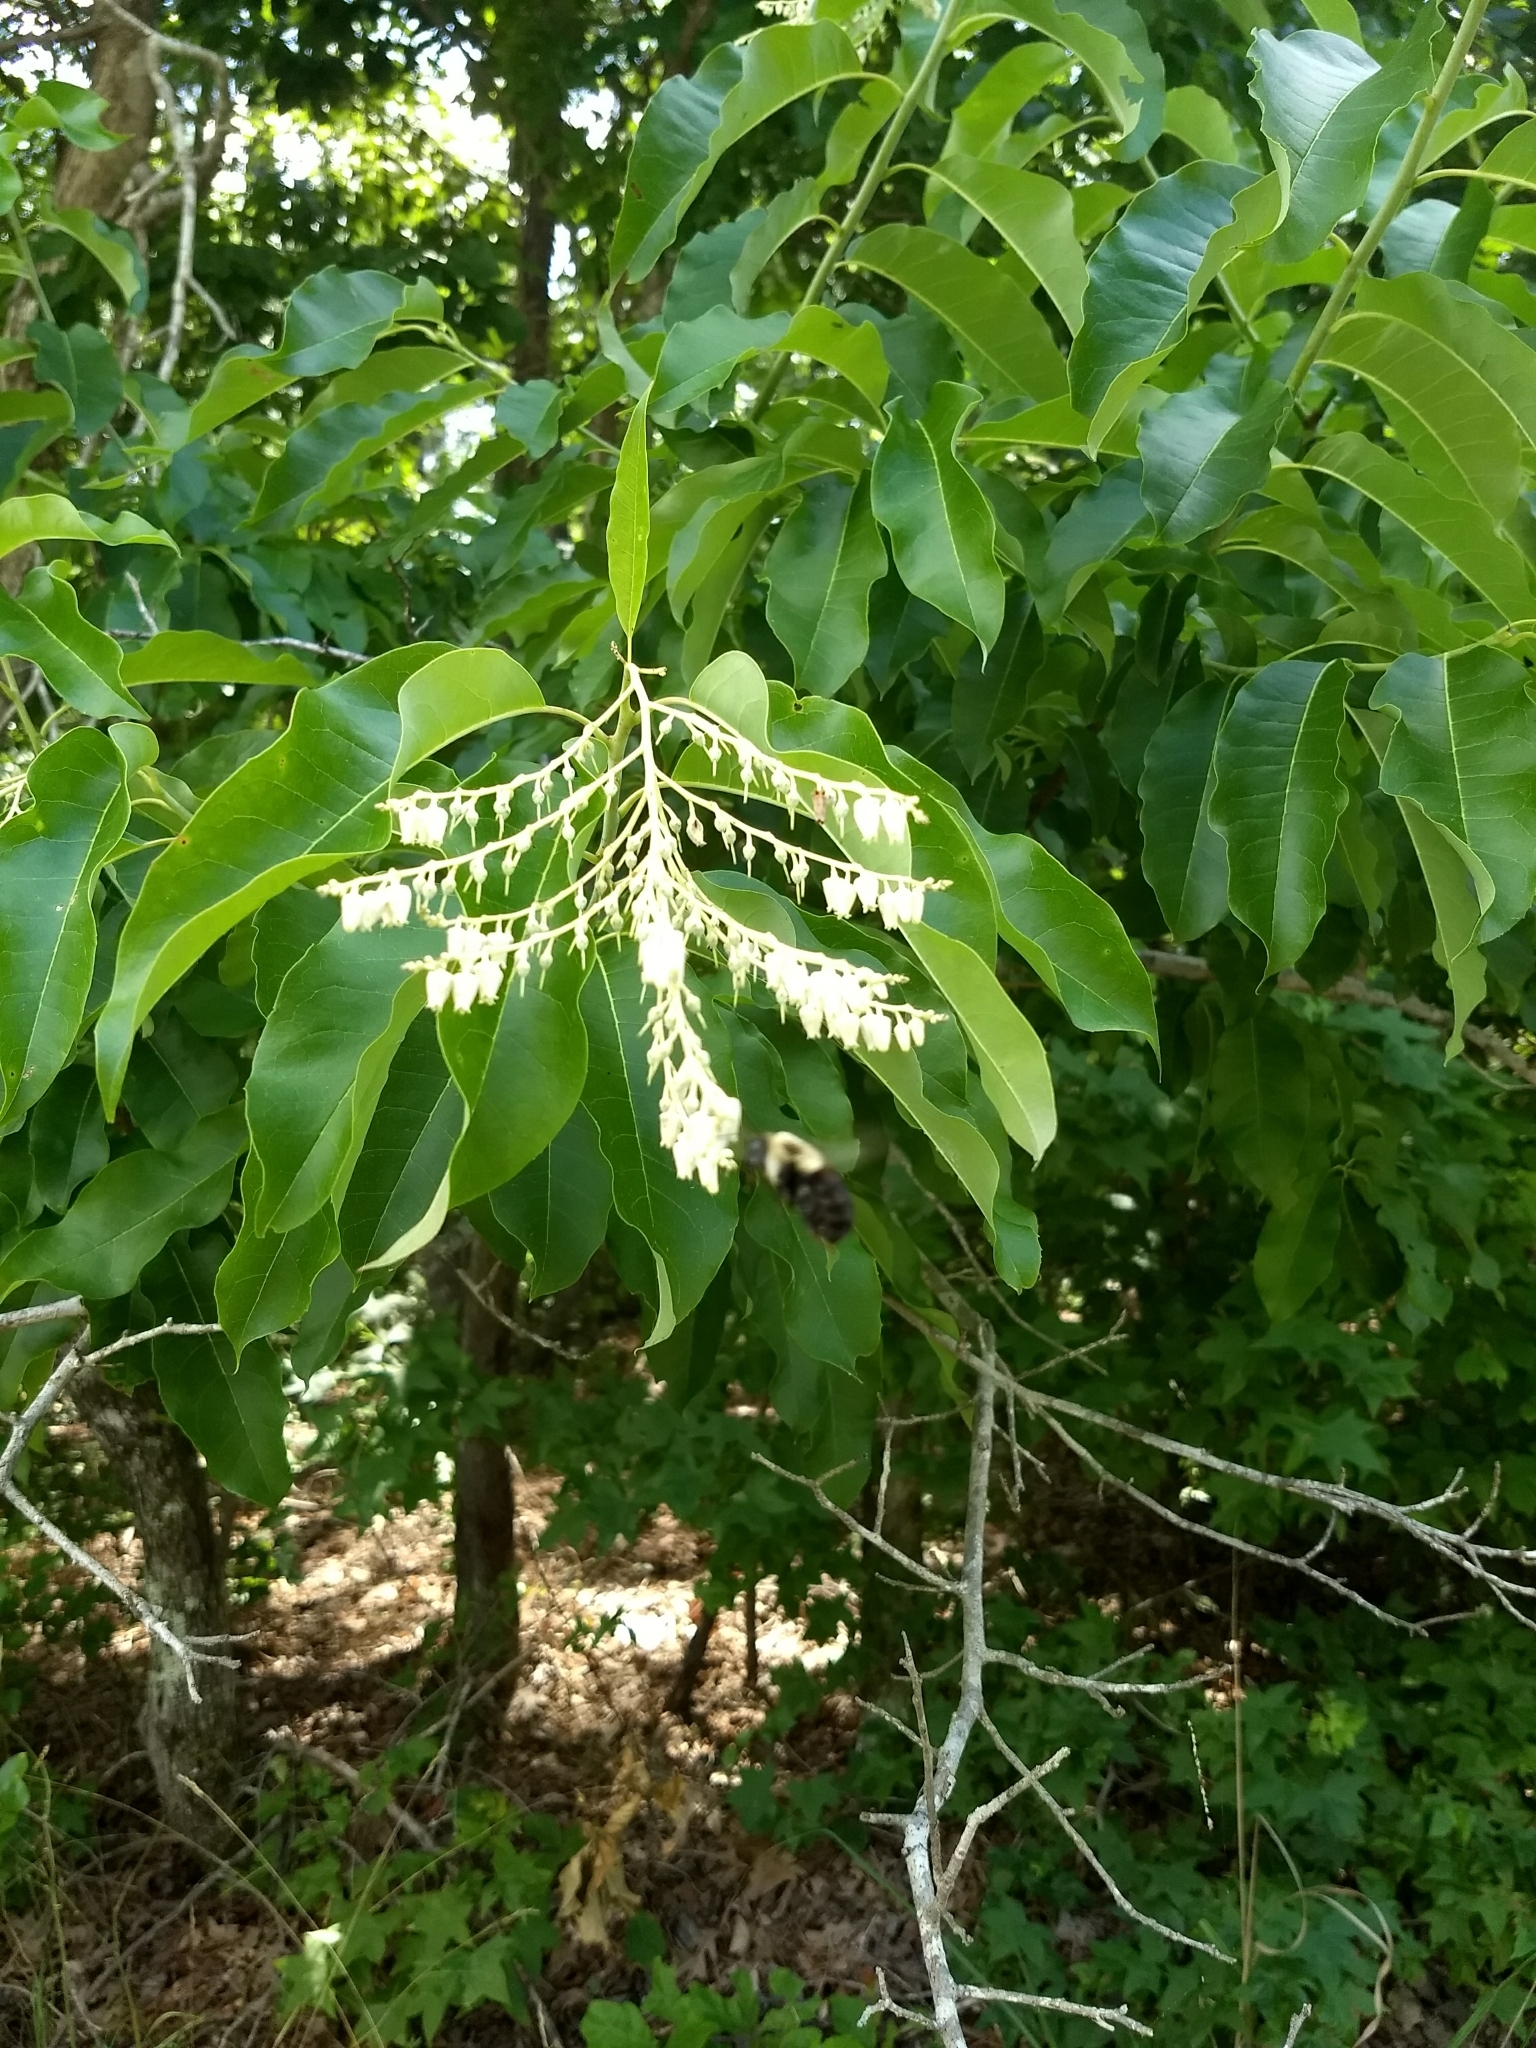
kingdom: Plantae
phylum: Tracheophyta
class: Magnoliopsida
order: Ericales
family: Ericaceae
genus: Oxydendrum
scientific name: Oxydendrum arboreum
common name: Sourwood
